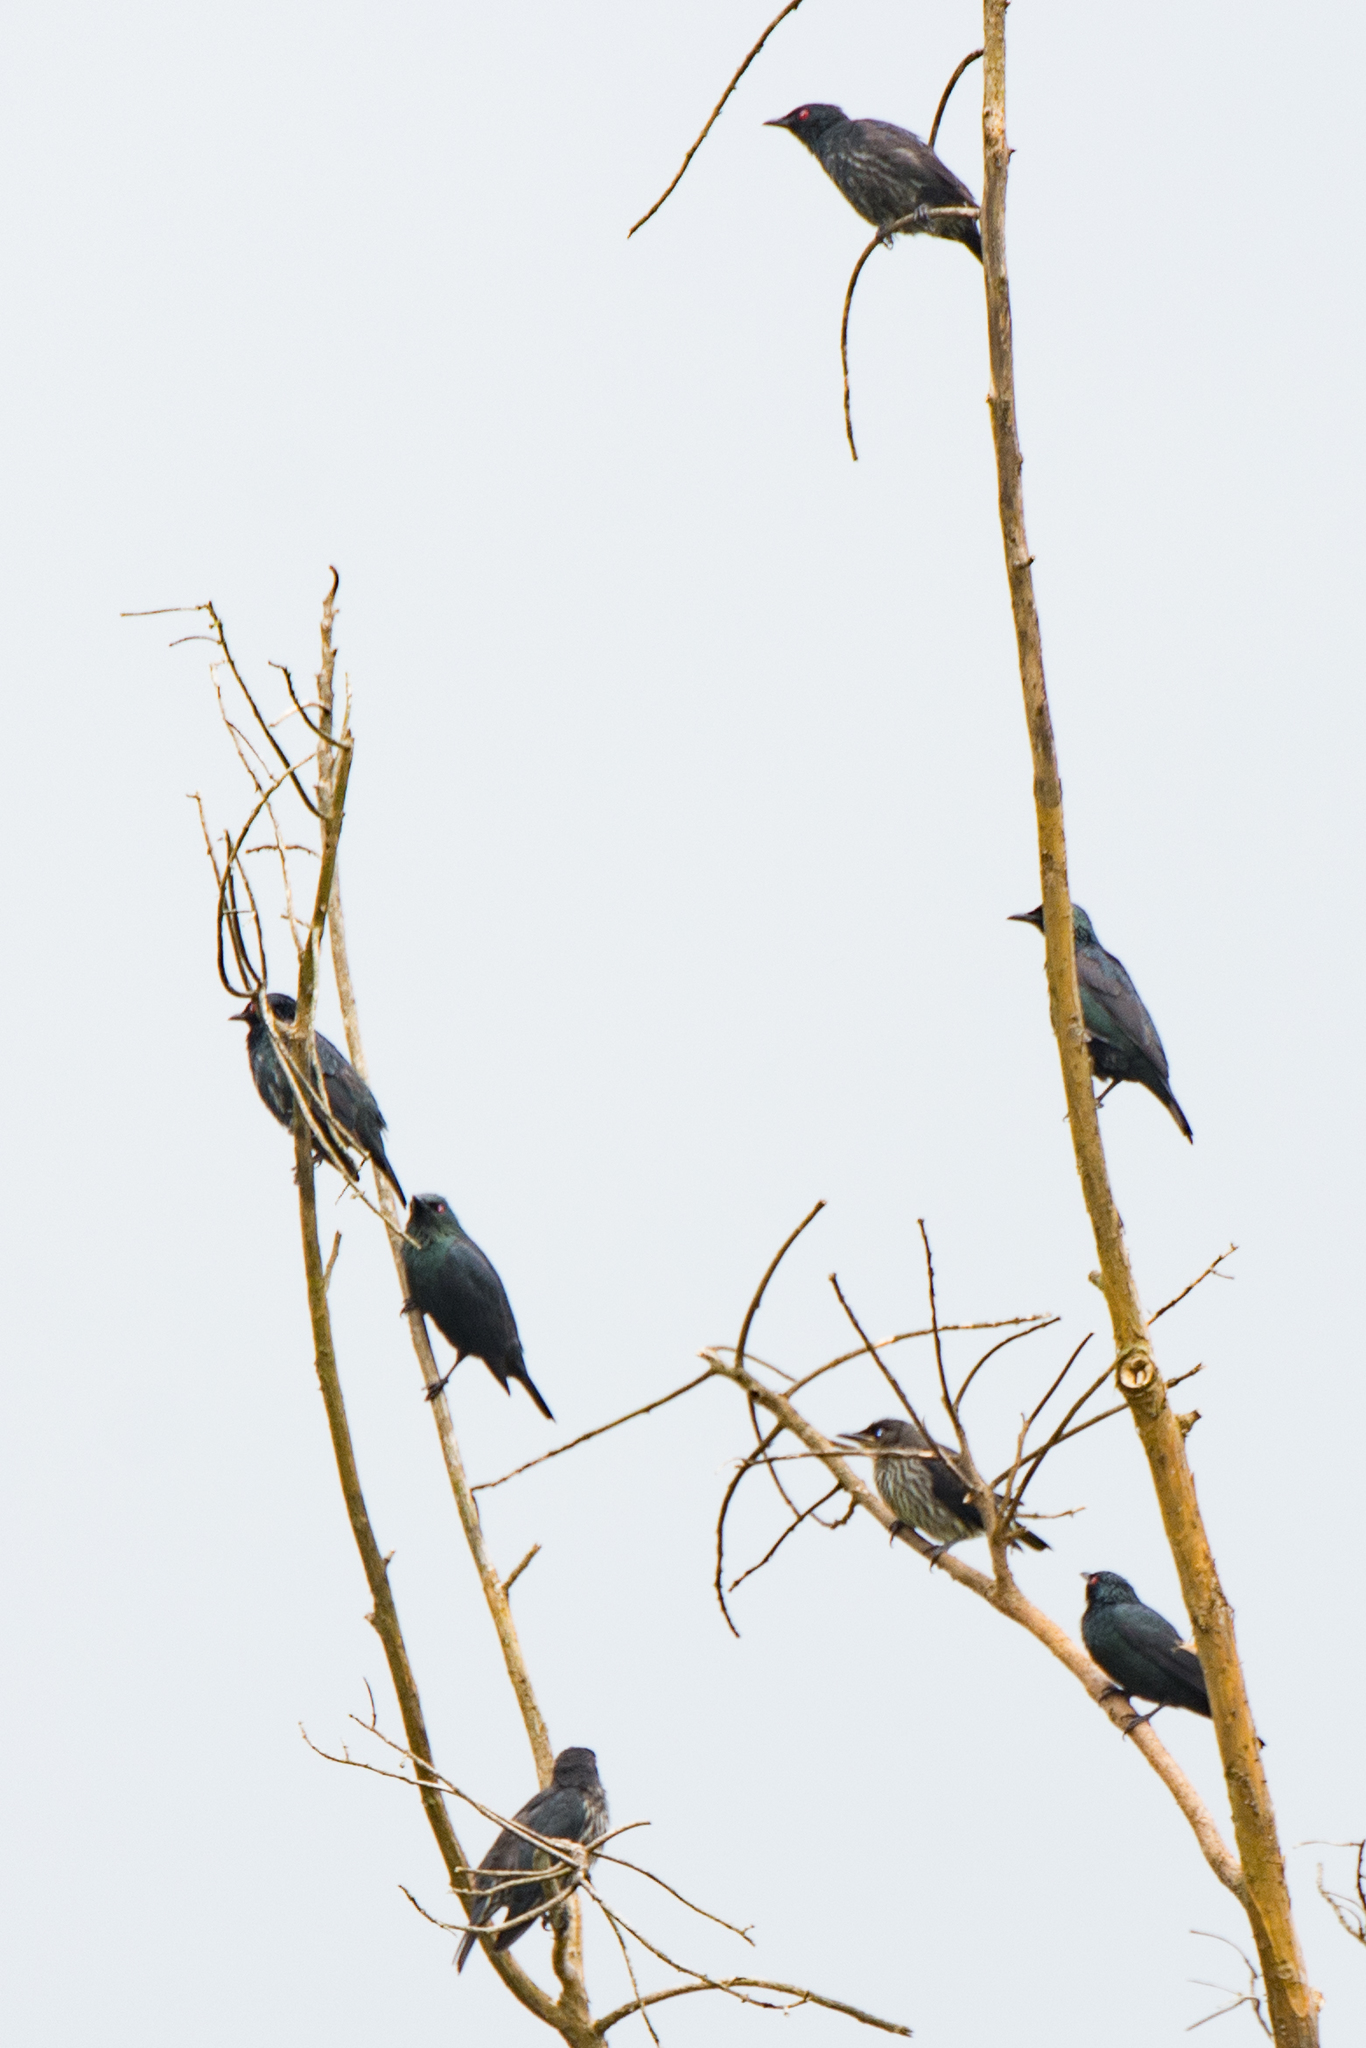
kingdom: Animalia
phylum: Chordata
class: Aves
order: Passeriformes
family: Sturnidae
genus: Aplonis
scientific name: Aplonis panayensis
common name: Asian glossy starling
